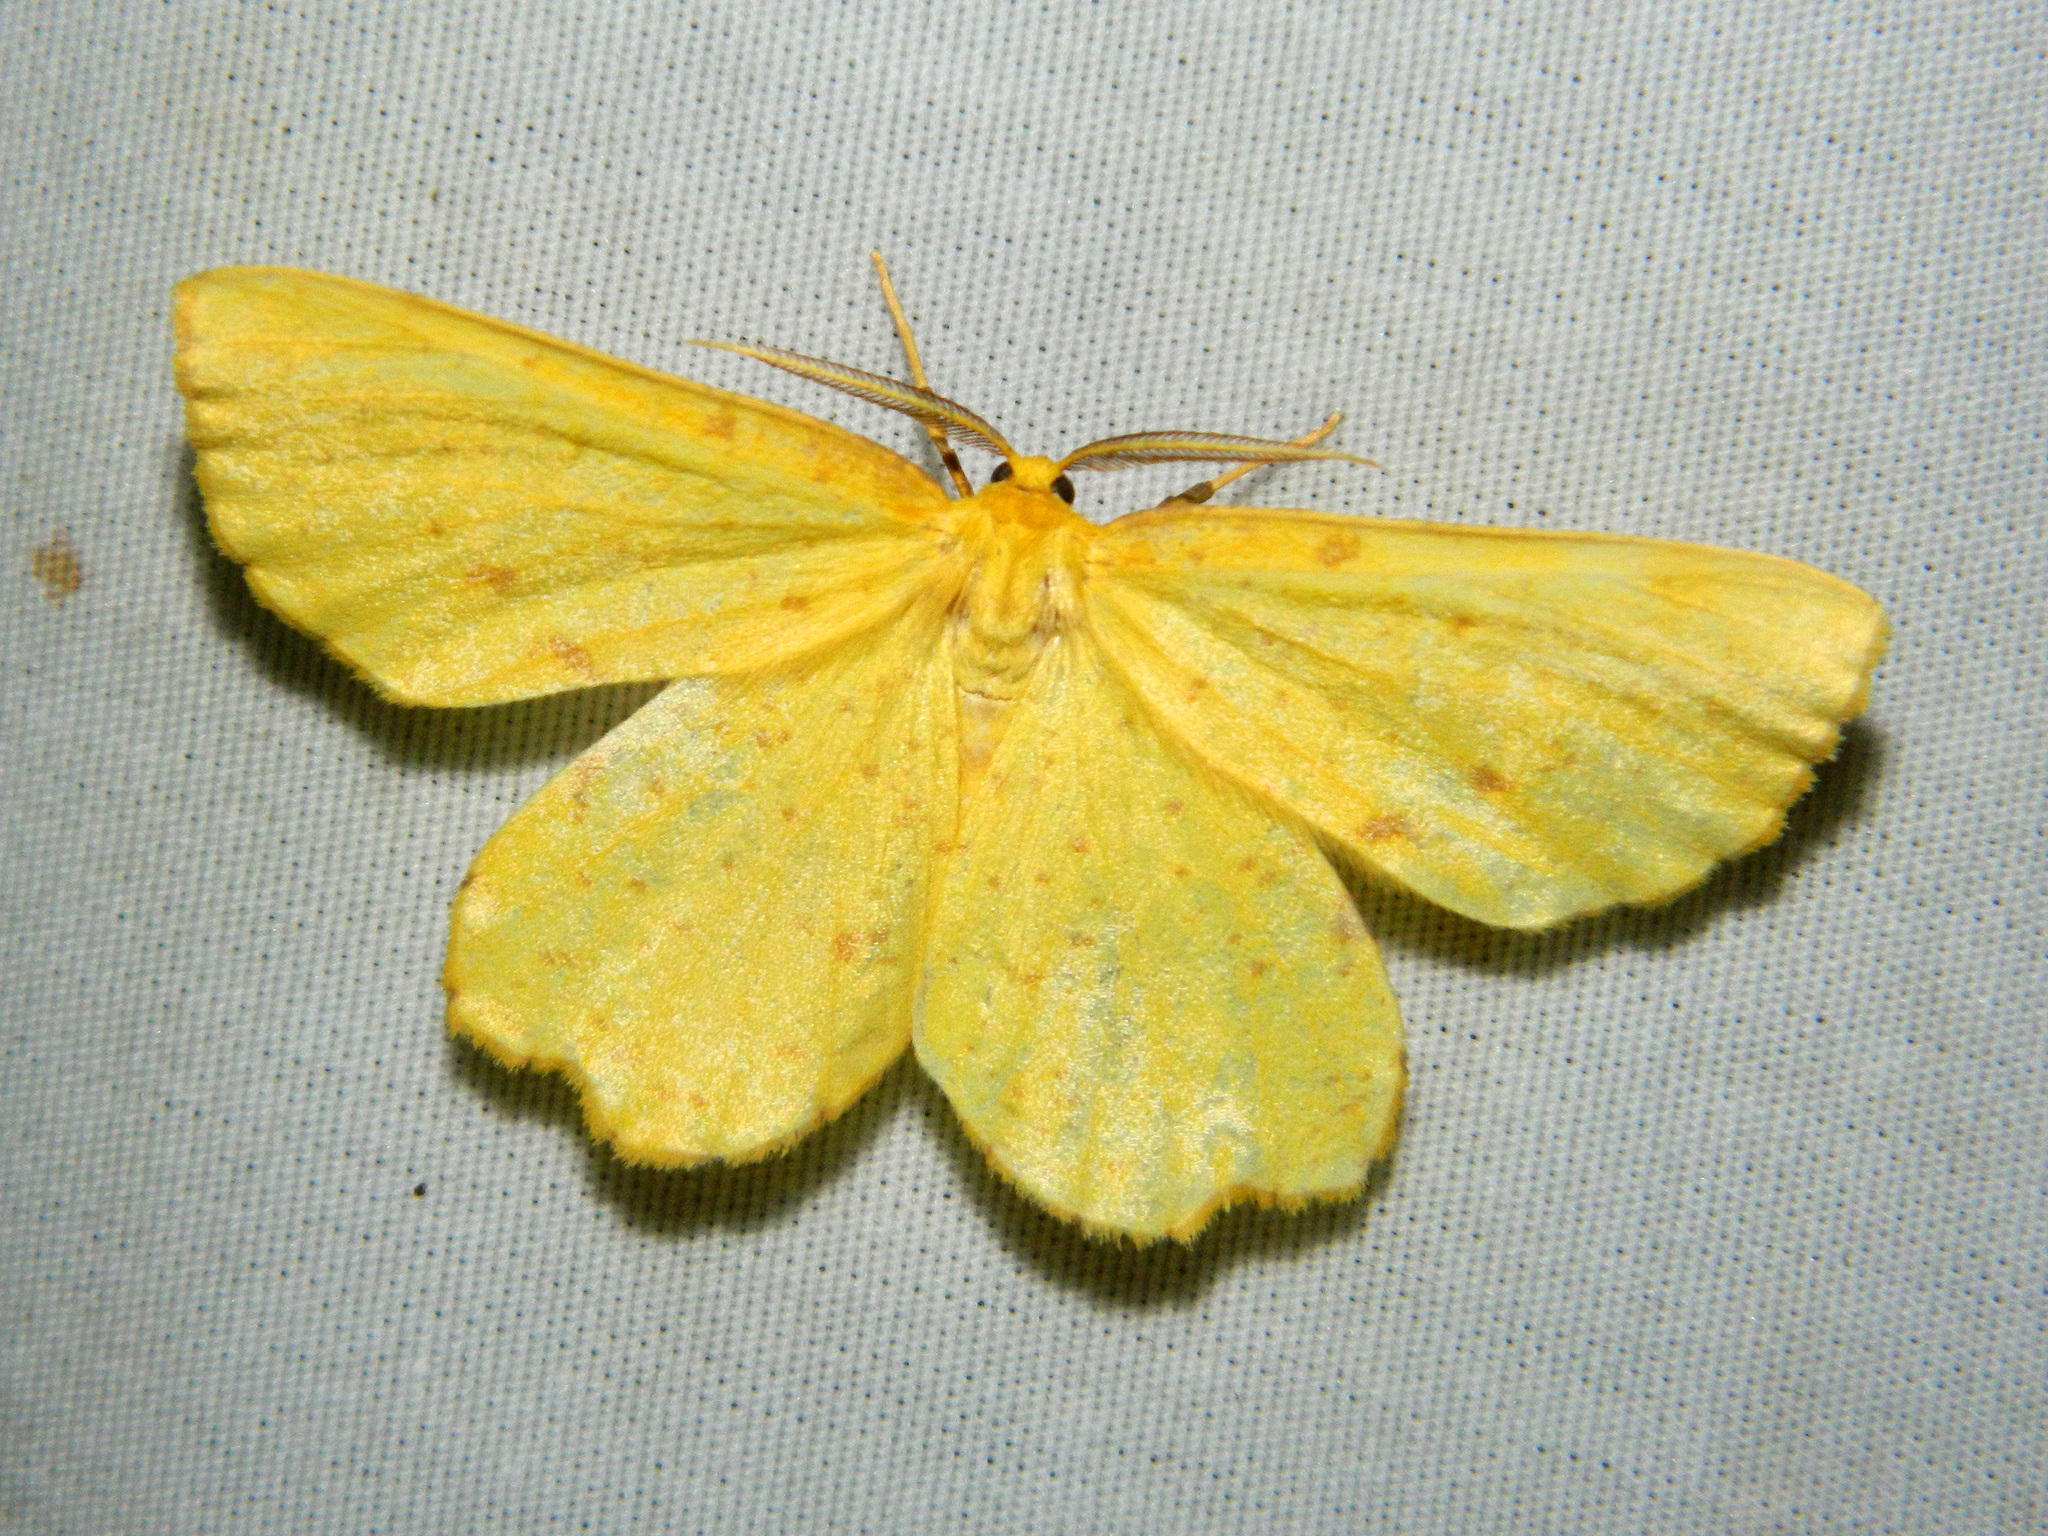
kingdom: Animalia
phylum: Arthropoda
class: Insecta
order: Lepidoptera
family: Geometridae
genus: Xanthotype
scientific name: Xanthotype
